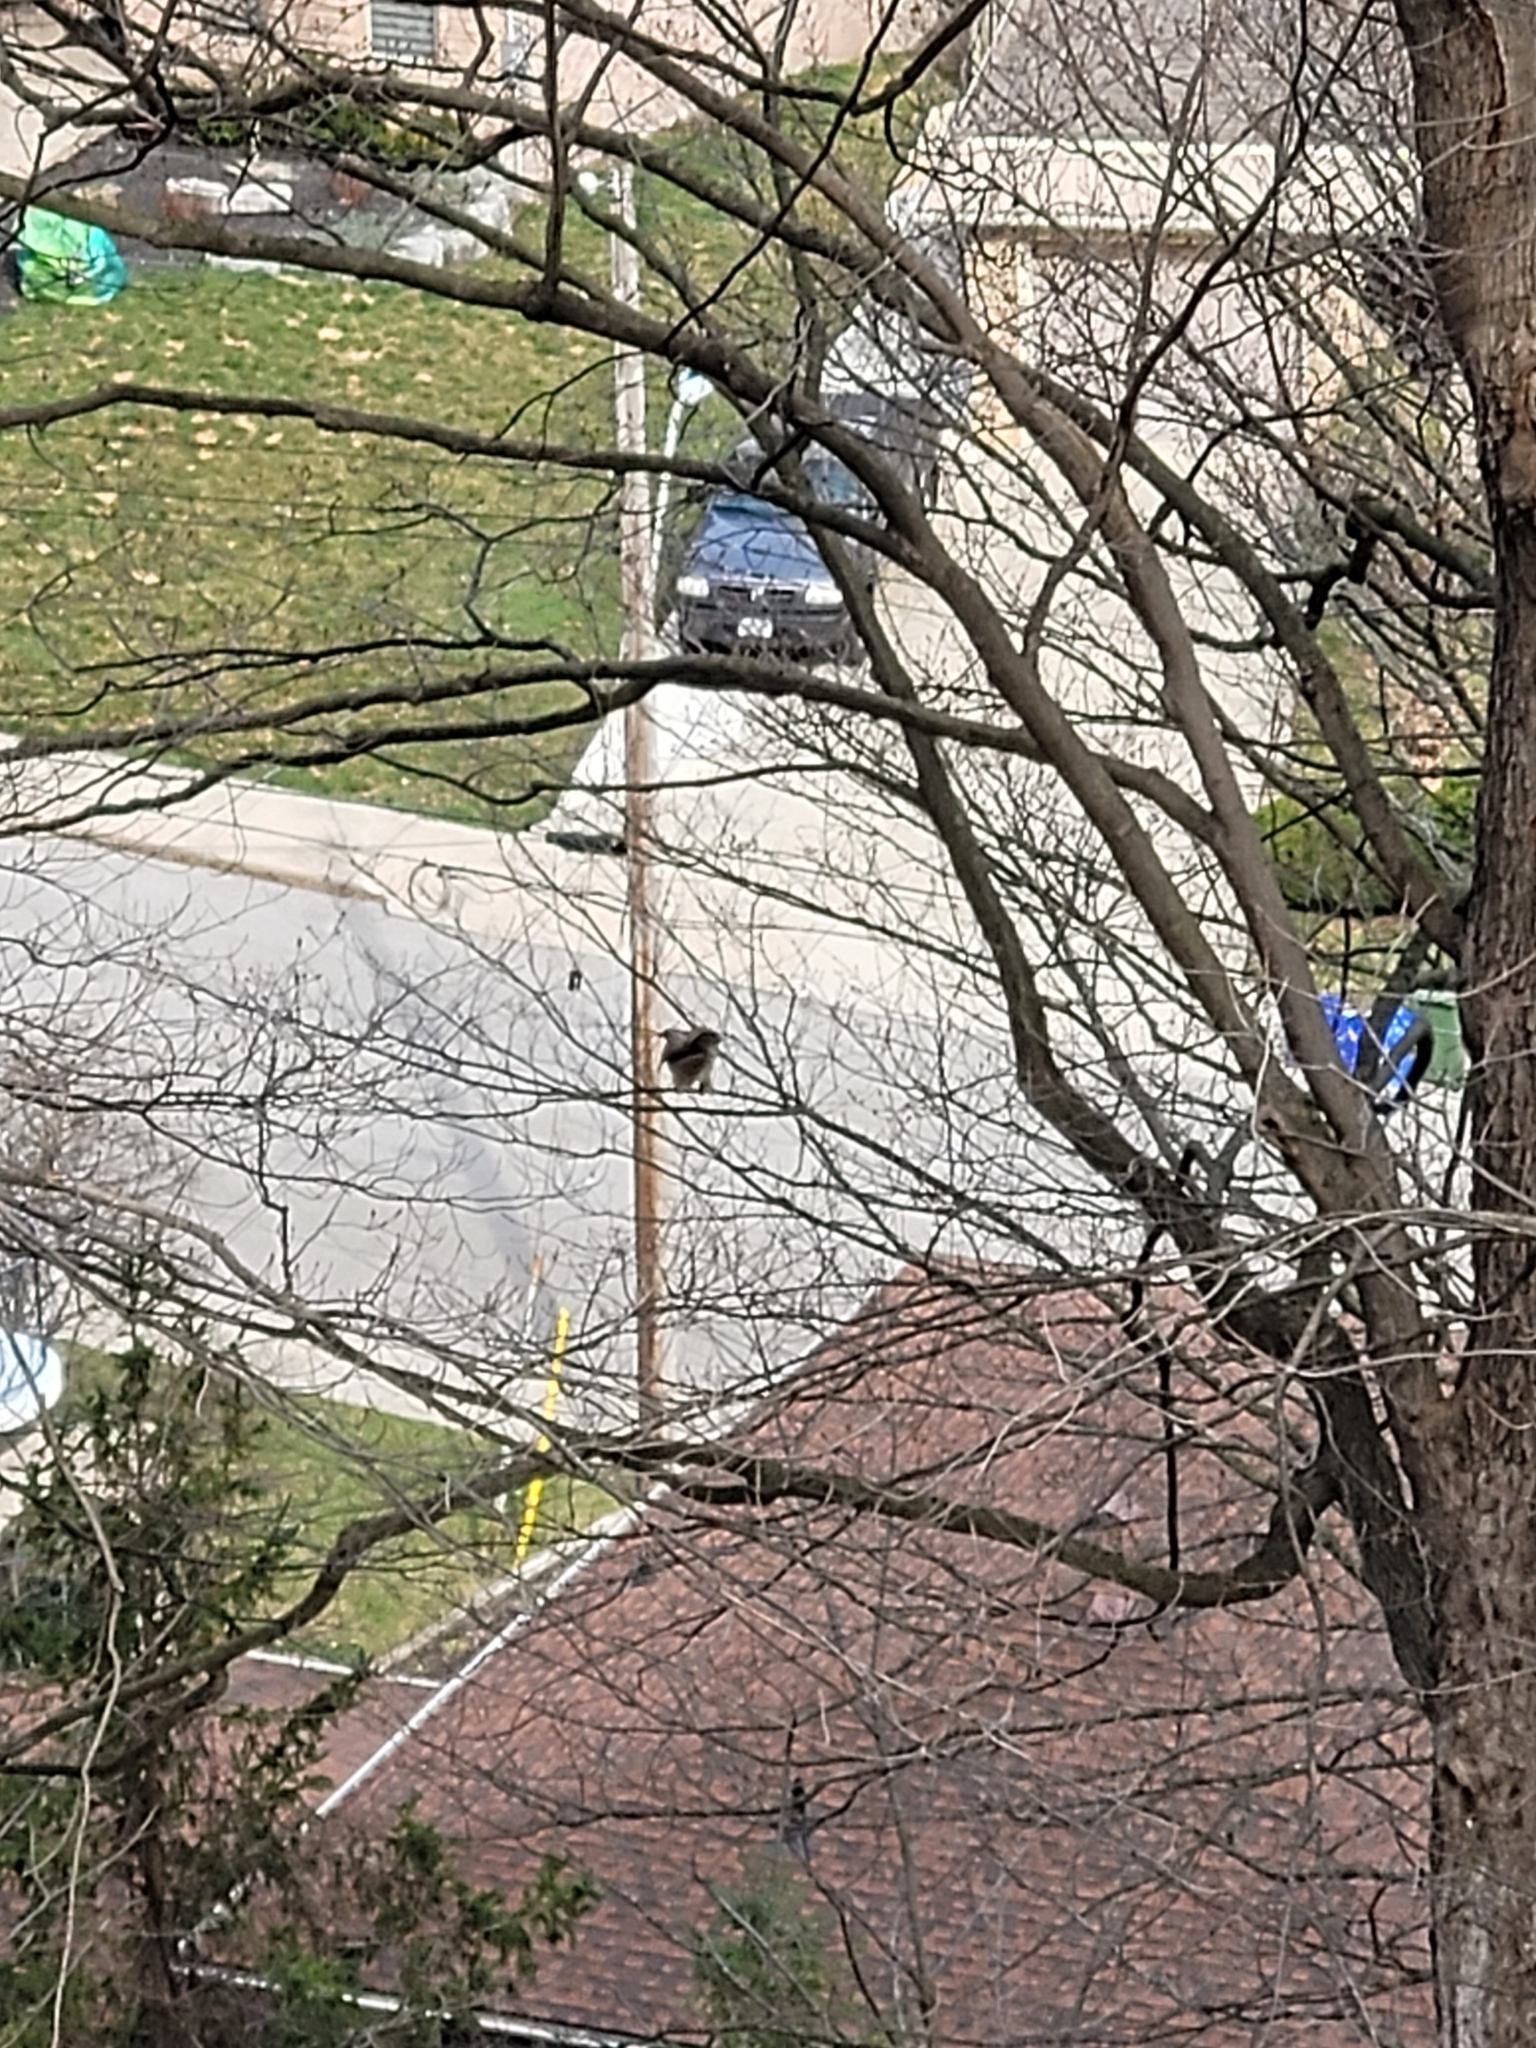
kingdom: Animalia
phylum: Chordata
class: Aves
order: Accipitriformes
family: Accipitridae
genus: Buteo
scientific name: Buteo jamaicensis
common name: Red-tailed hawk
